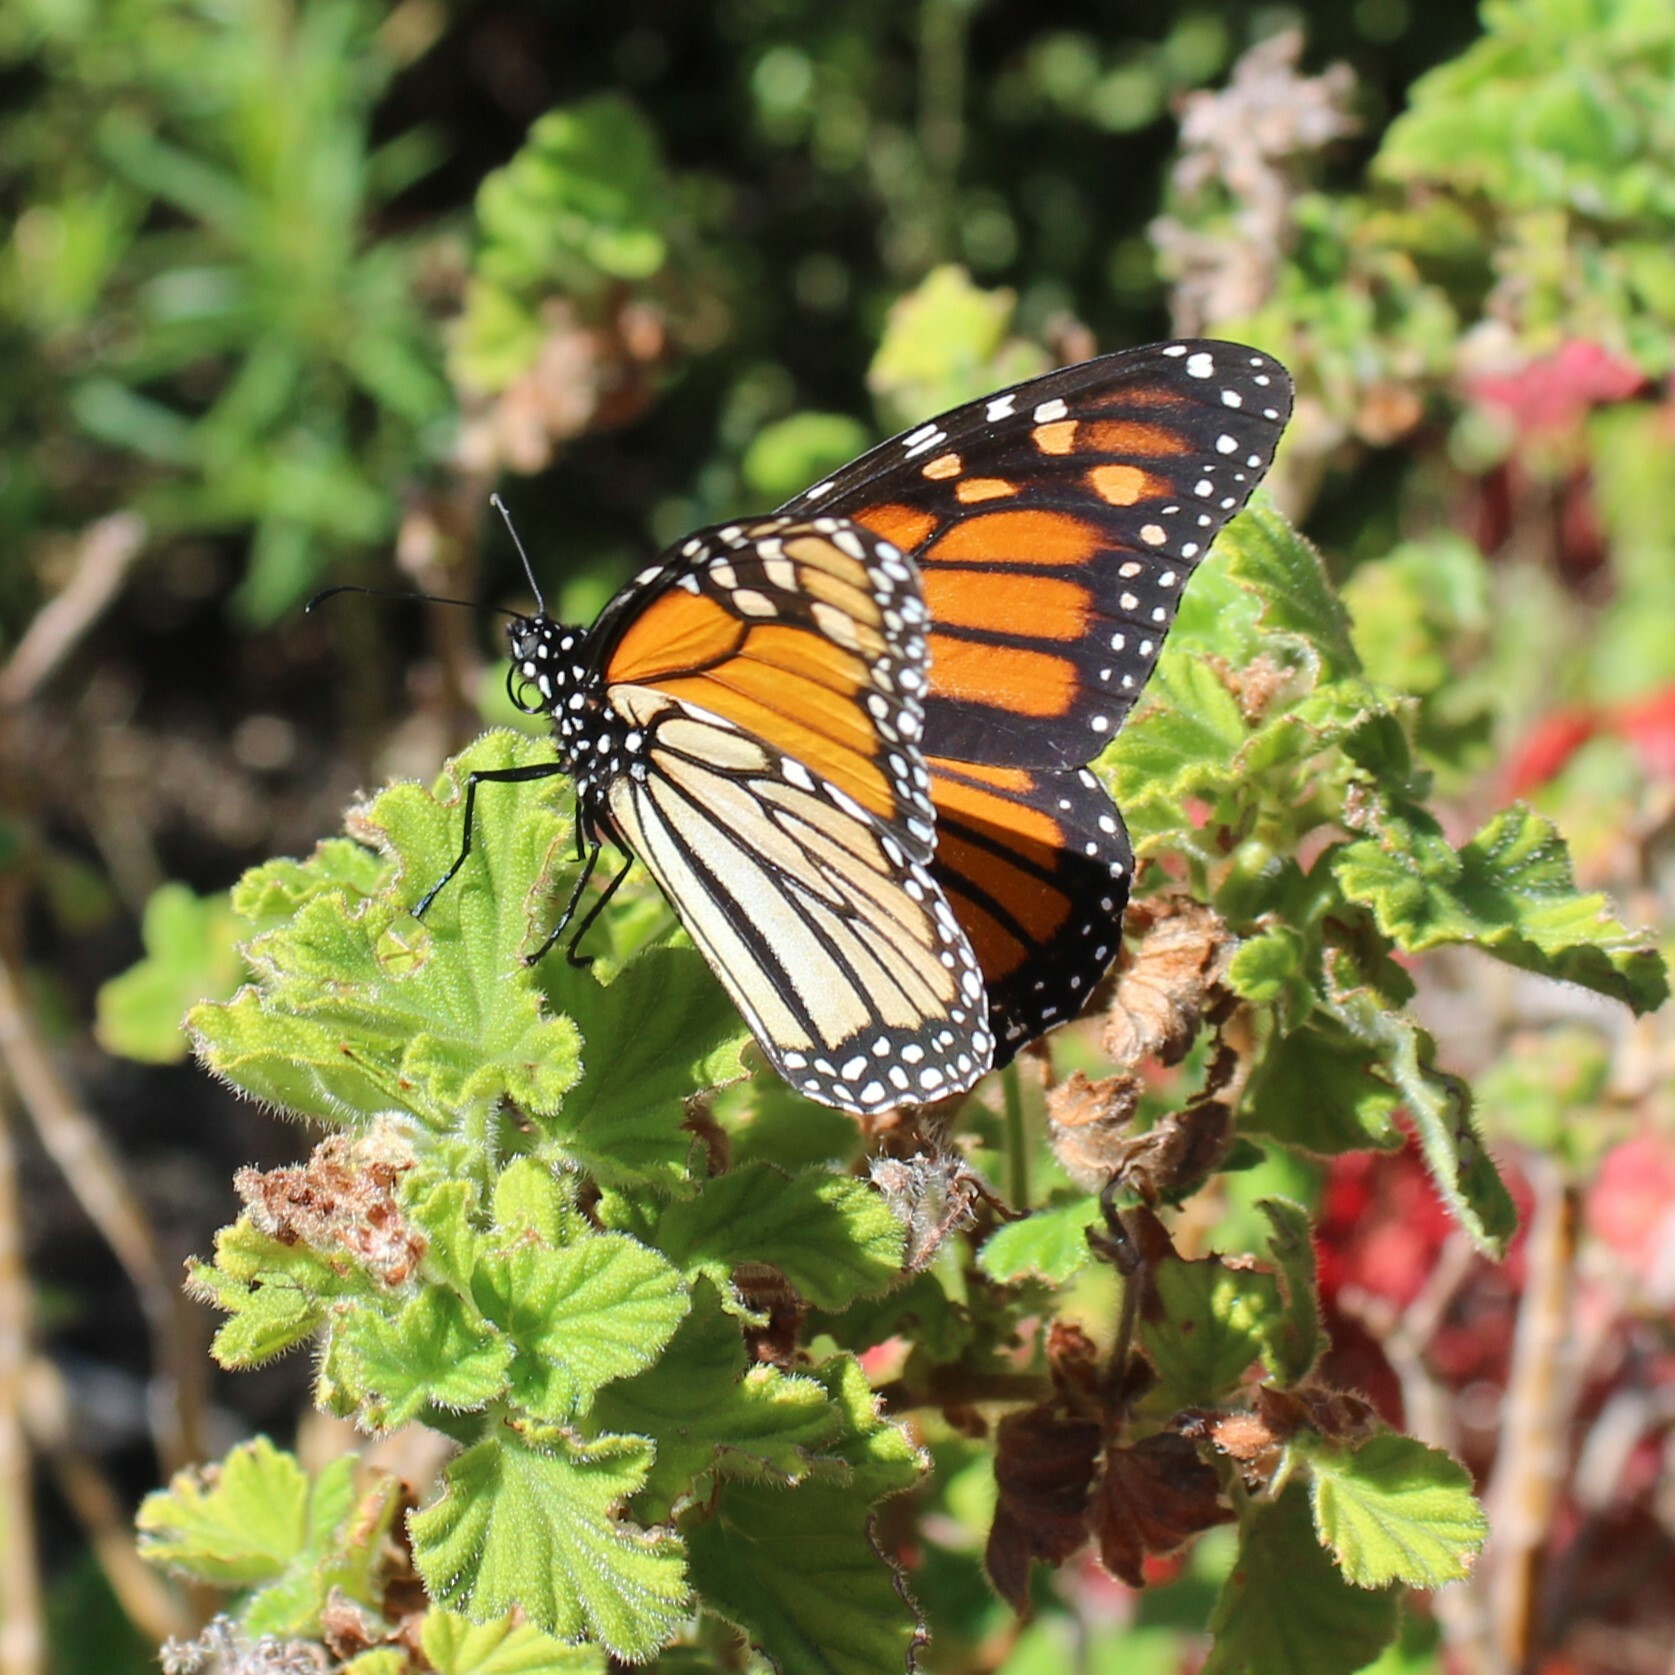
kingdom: Animalia
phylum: Arthropoda
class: Insecta
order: Lepidoptera
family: Nymphalidae
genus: Danaus
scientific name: Danaus plexippus
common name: Monarch
